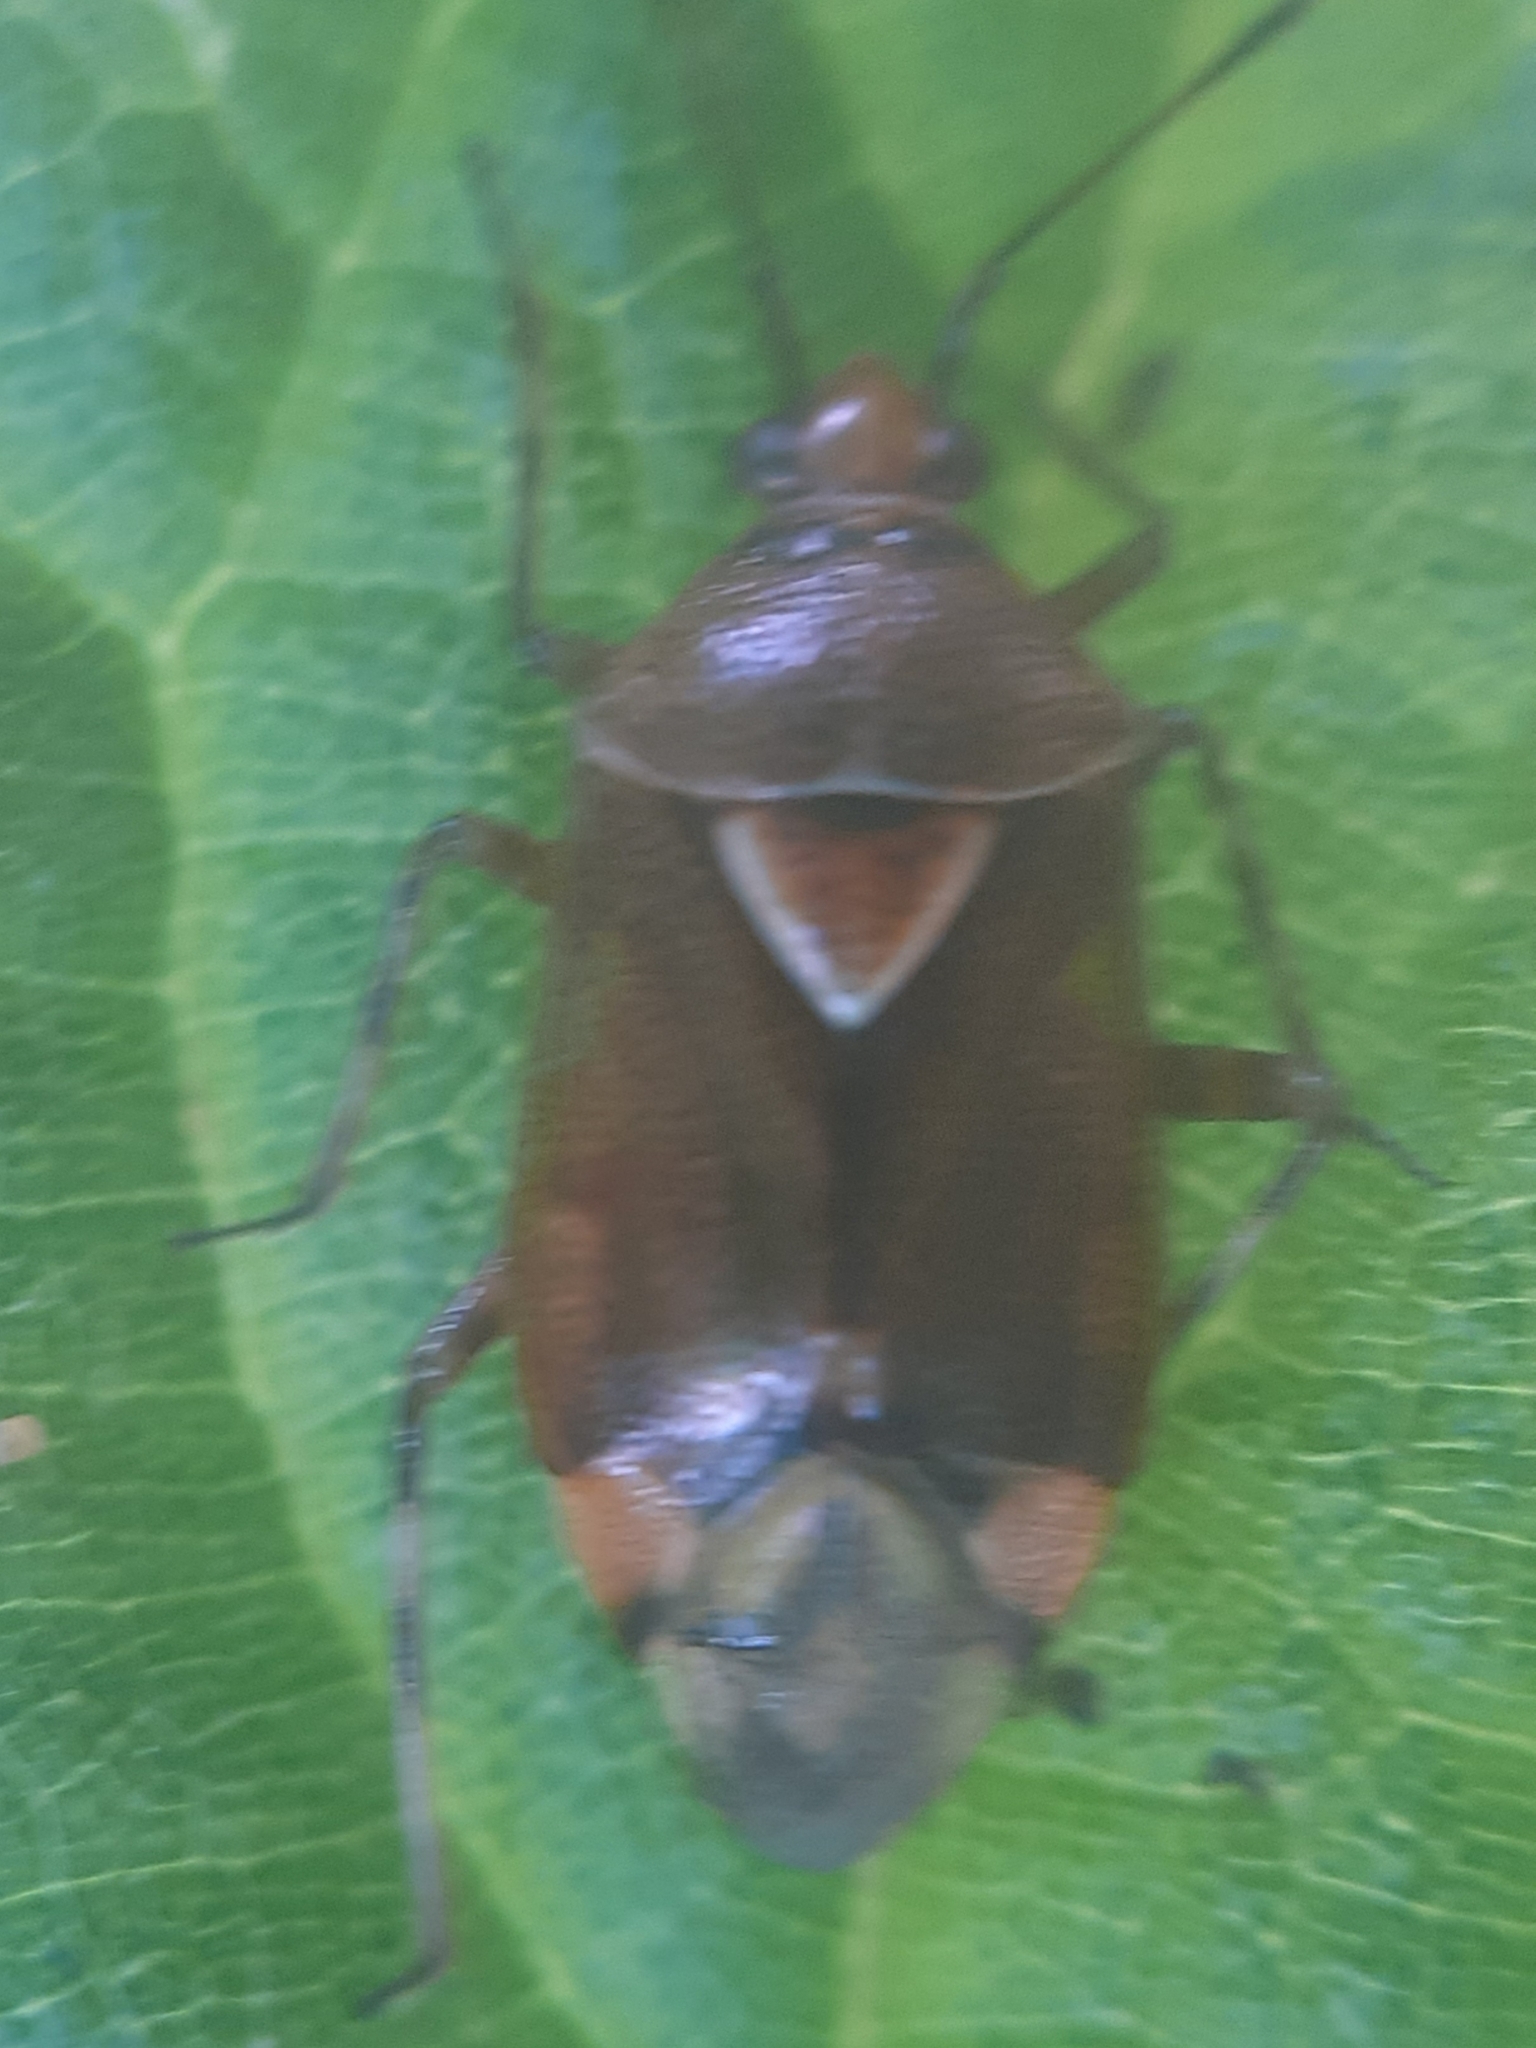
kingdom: Animalia
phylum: Arthropoda
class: Insecta
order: Hemiptera
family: Miridae
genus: Deraeocoris
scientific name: Deraeocoris flavilinea
